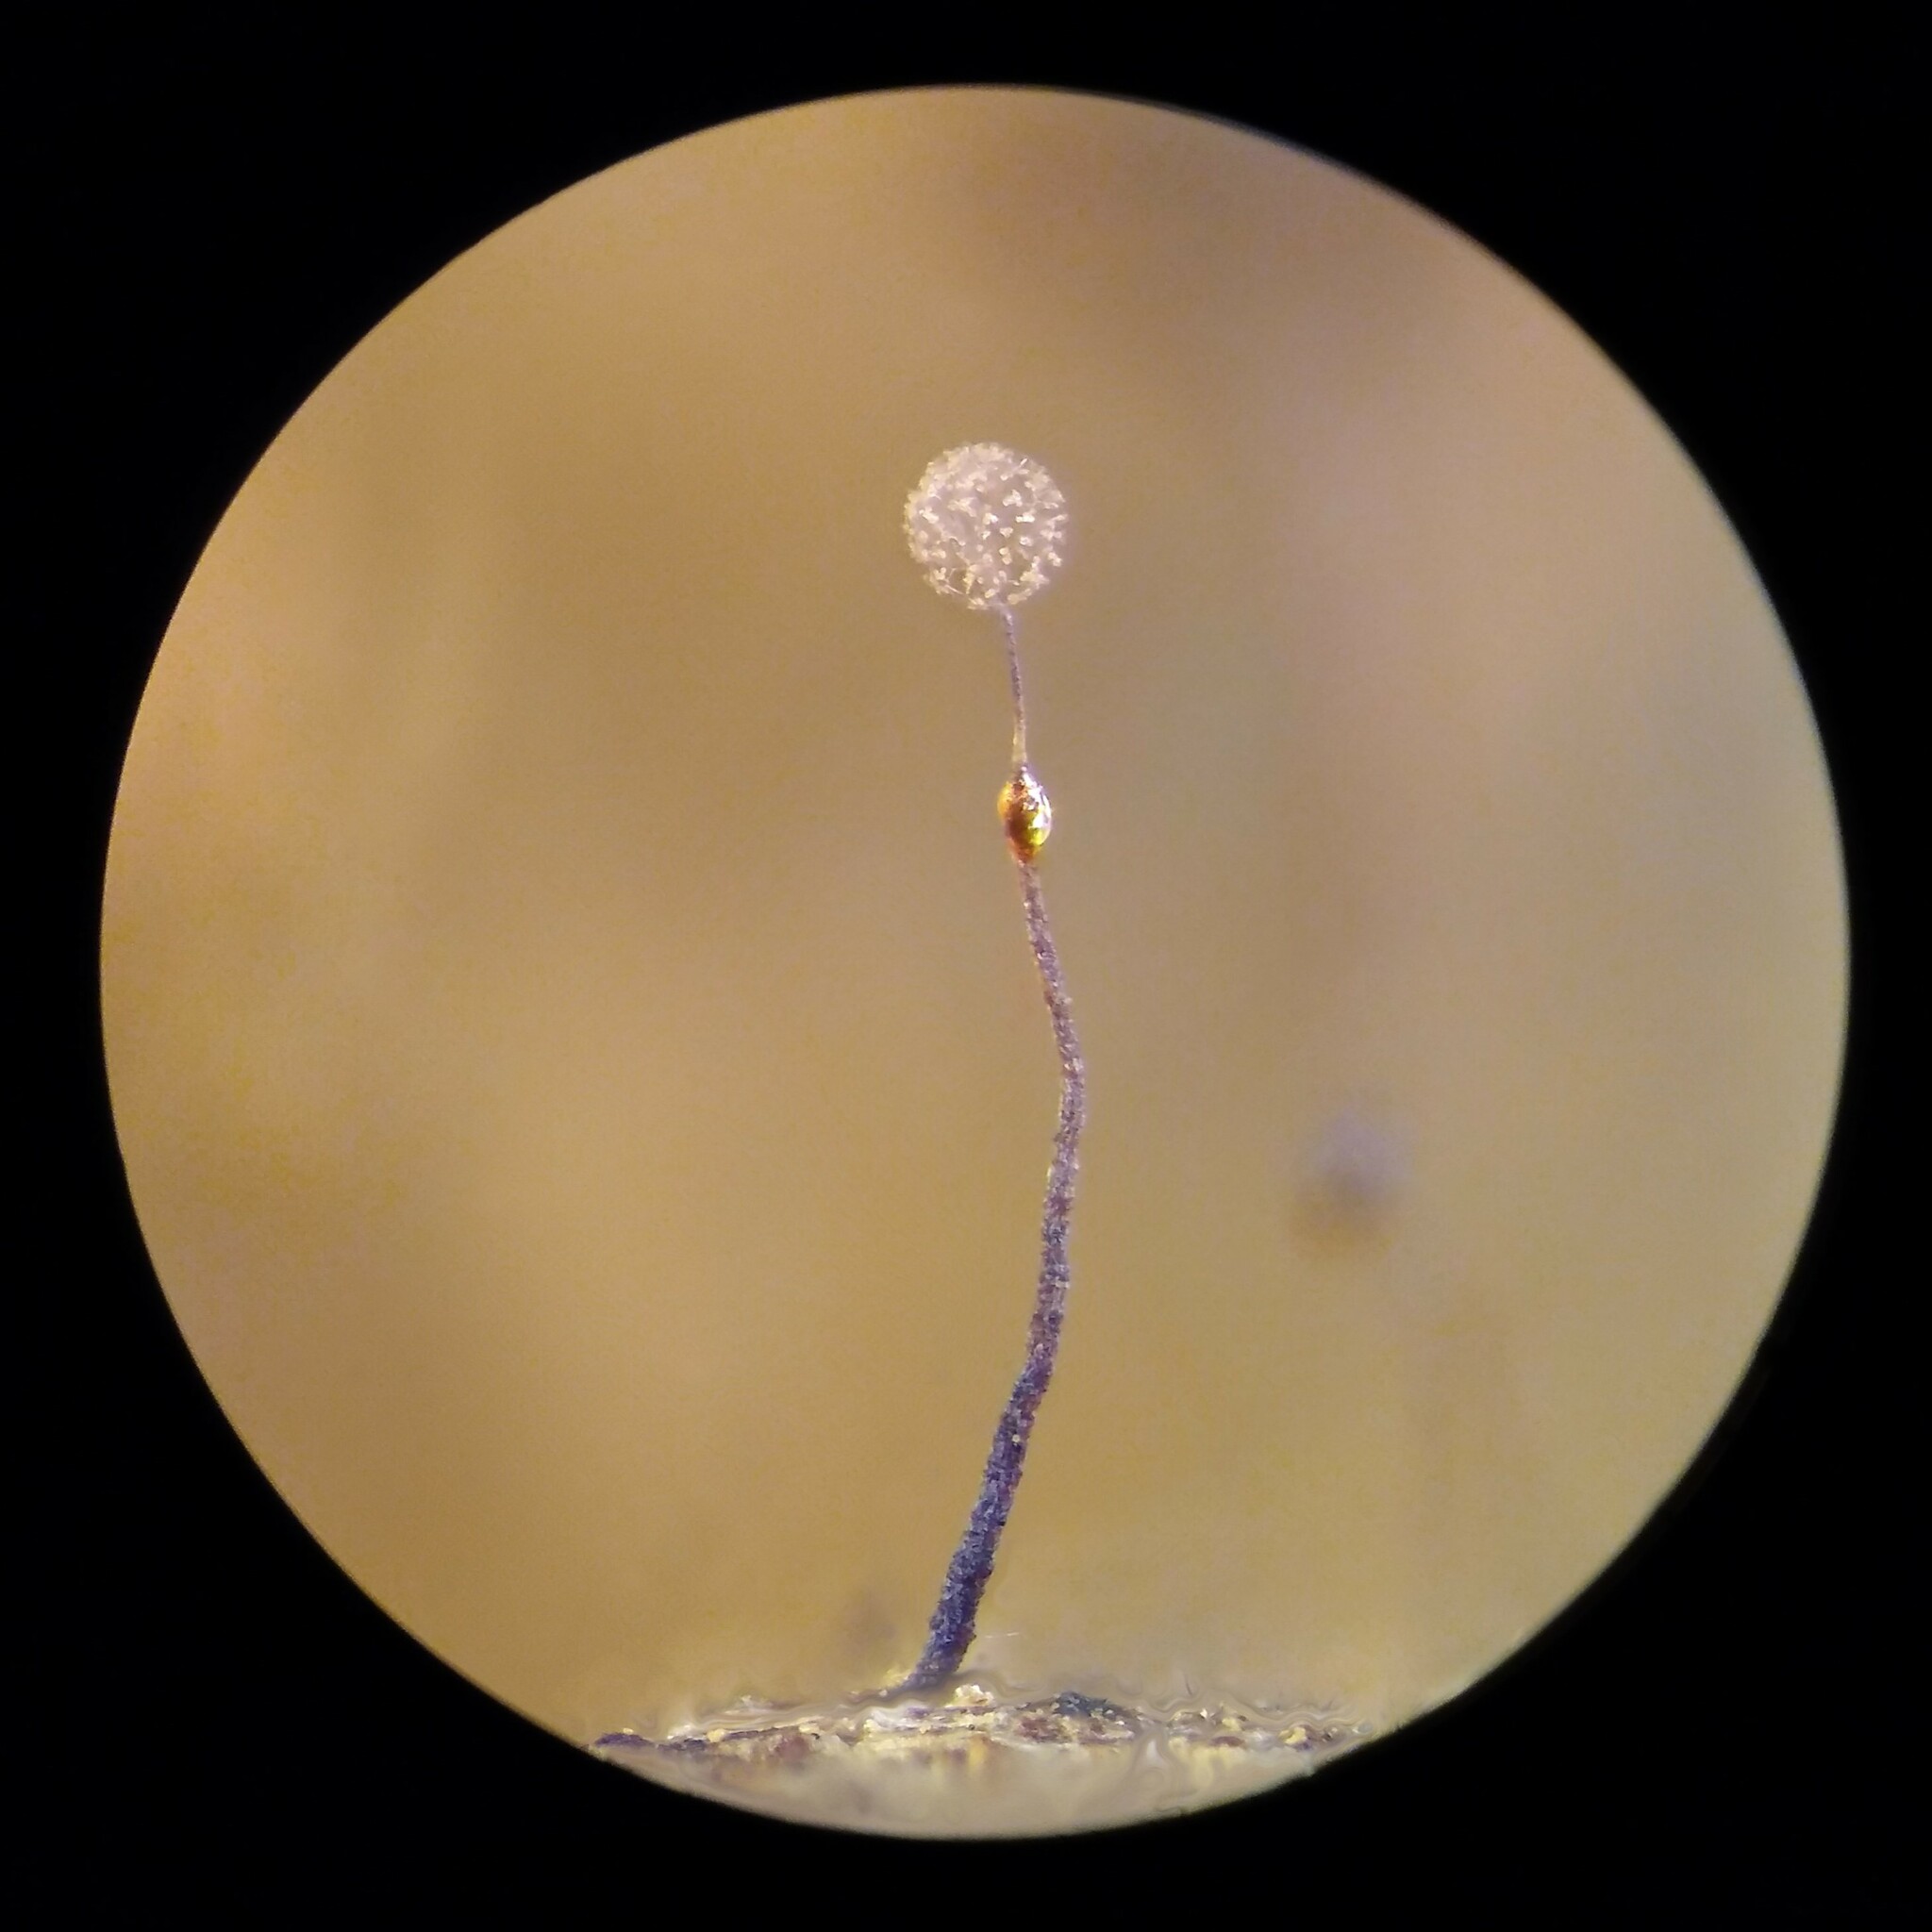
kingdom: Protozoa
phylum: Mycetozoa
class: Myxomycetes
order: Echinosteliales
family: Clastodermataceae
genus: Clastoderma
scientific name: Clastoderma debaryanum
